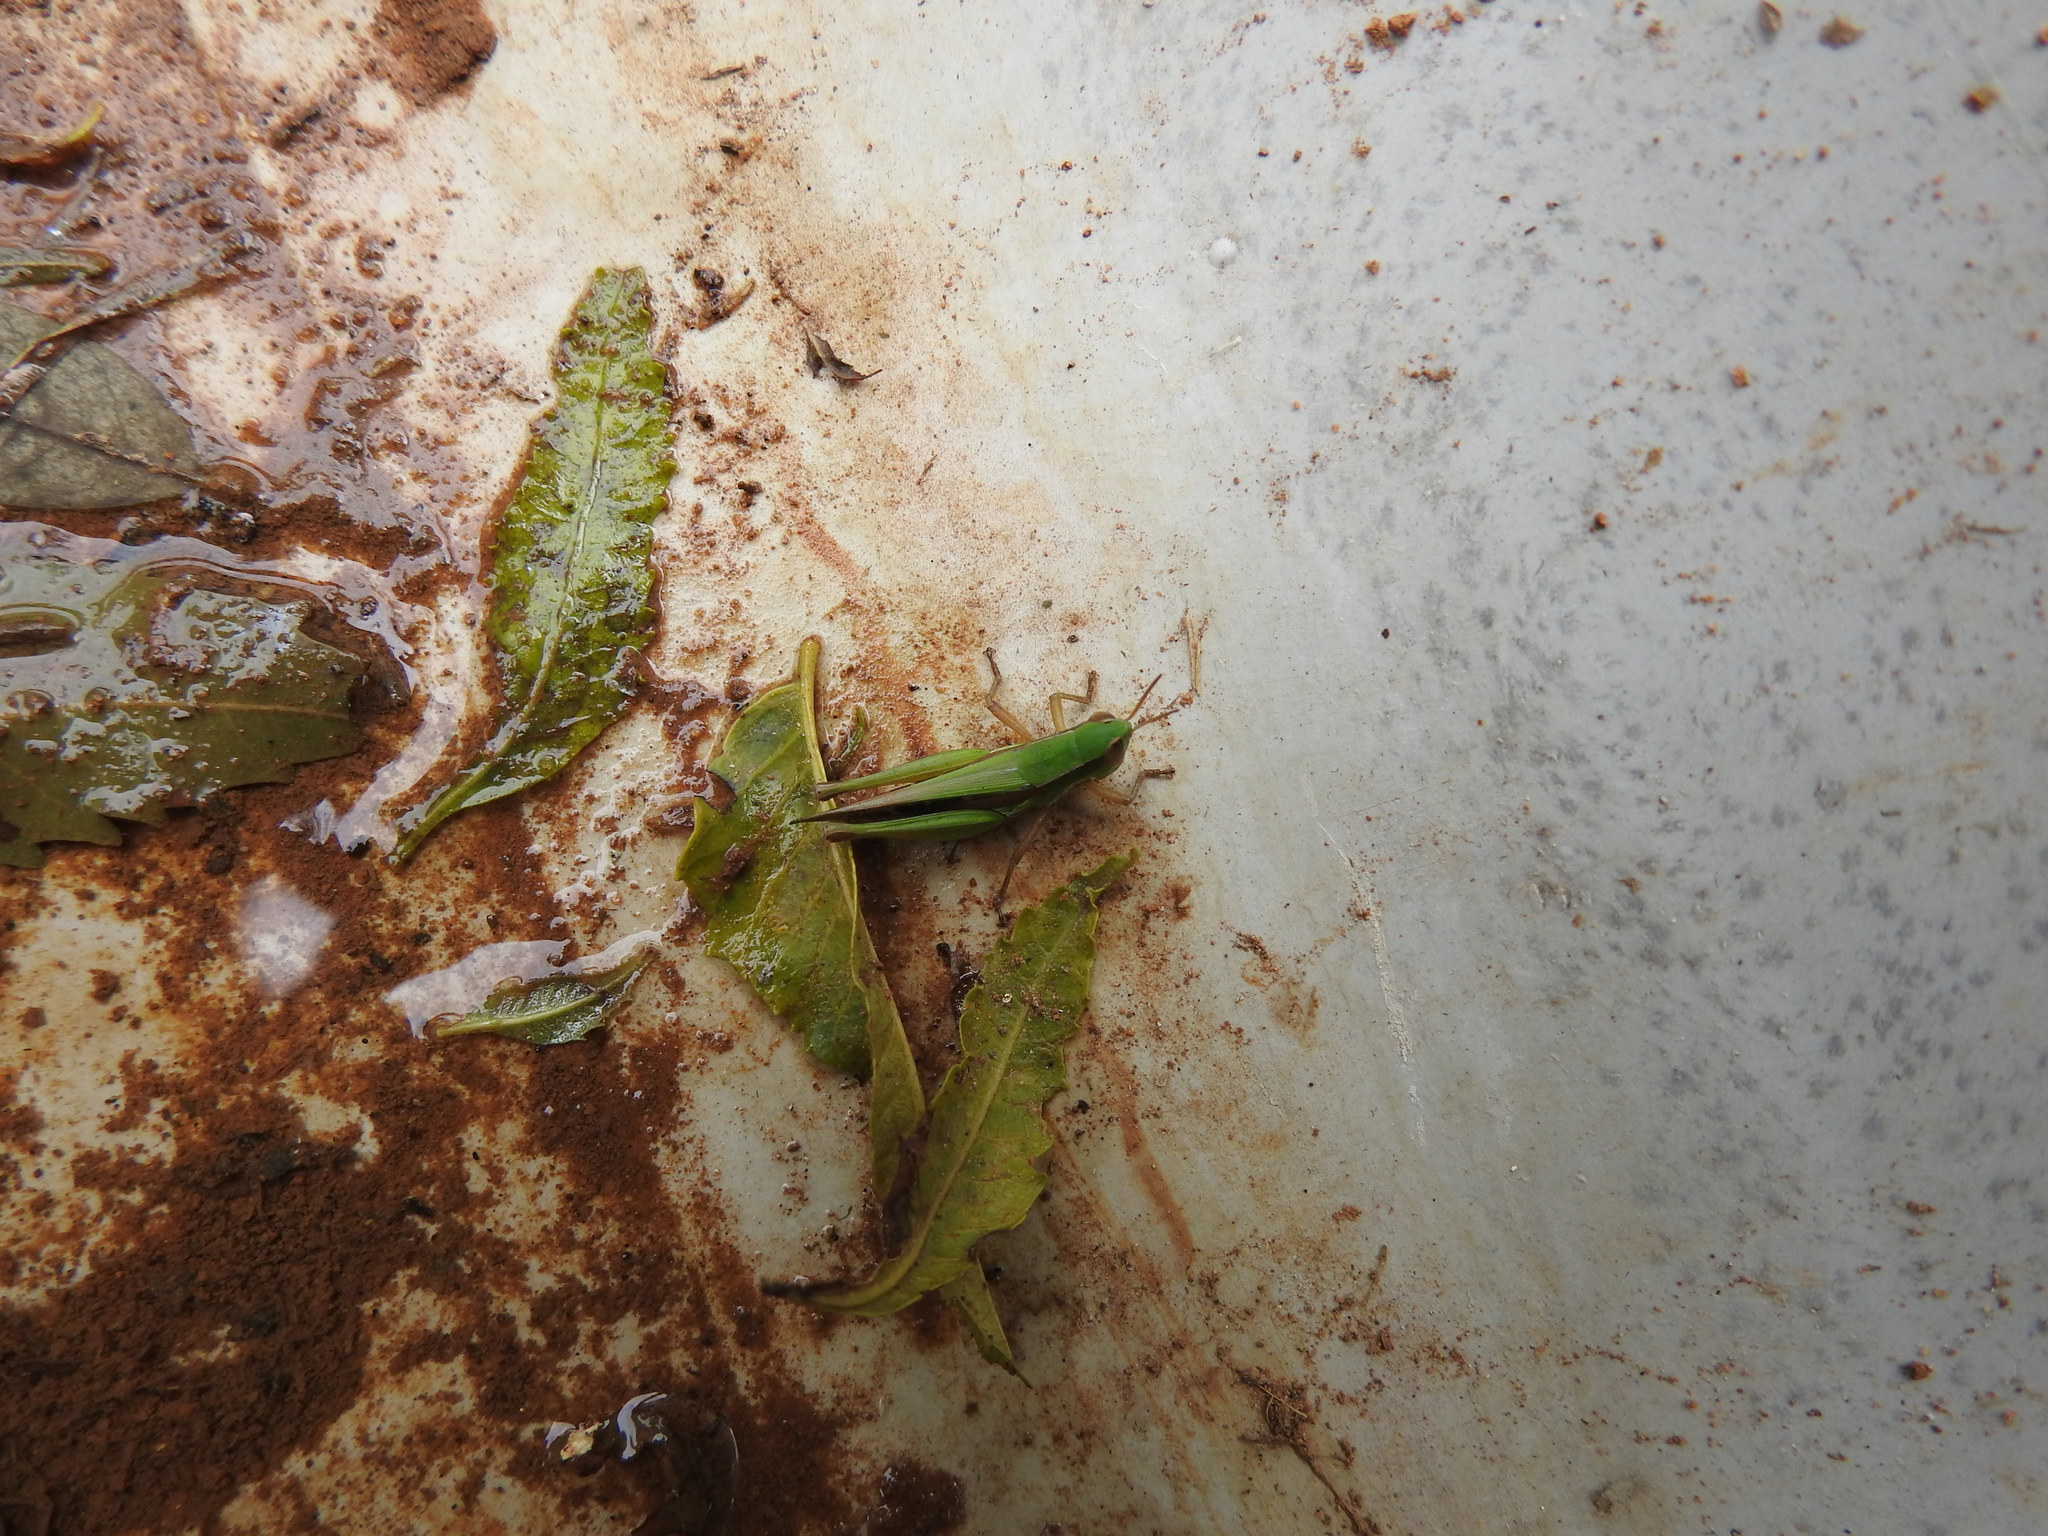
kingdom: Animalia
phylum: Arthropoda
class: Insecta
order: Orthoptera
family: Acrididae
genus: Spathosternum
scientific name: Spathosternum prasiniferum
